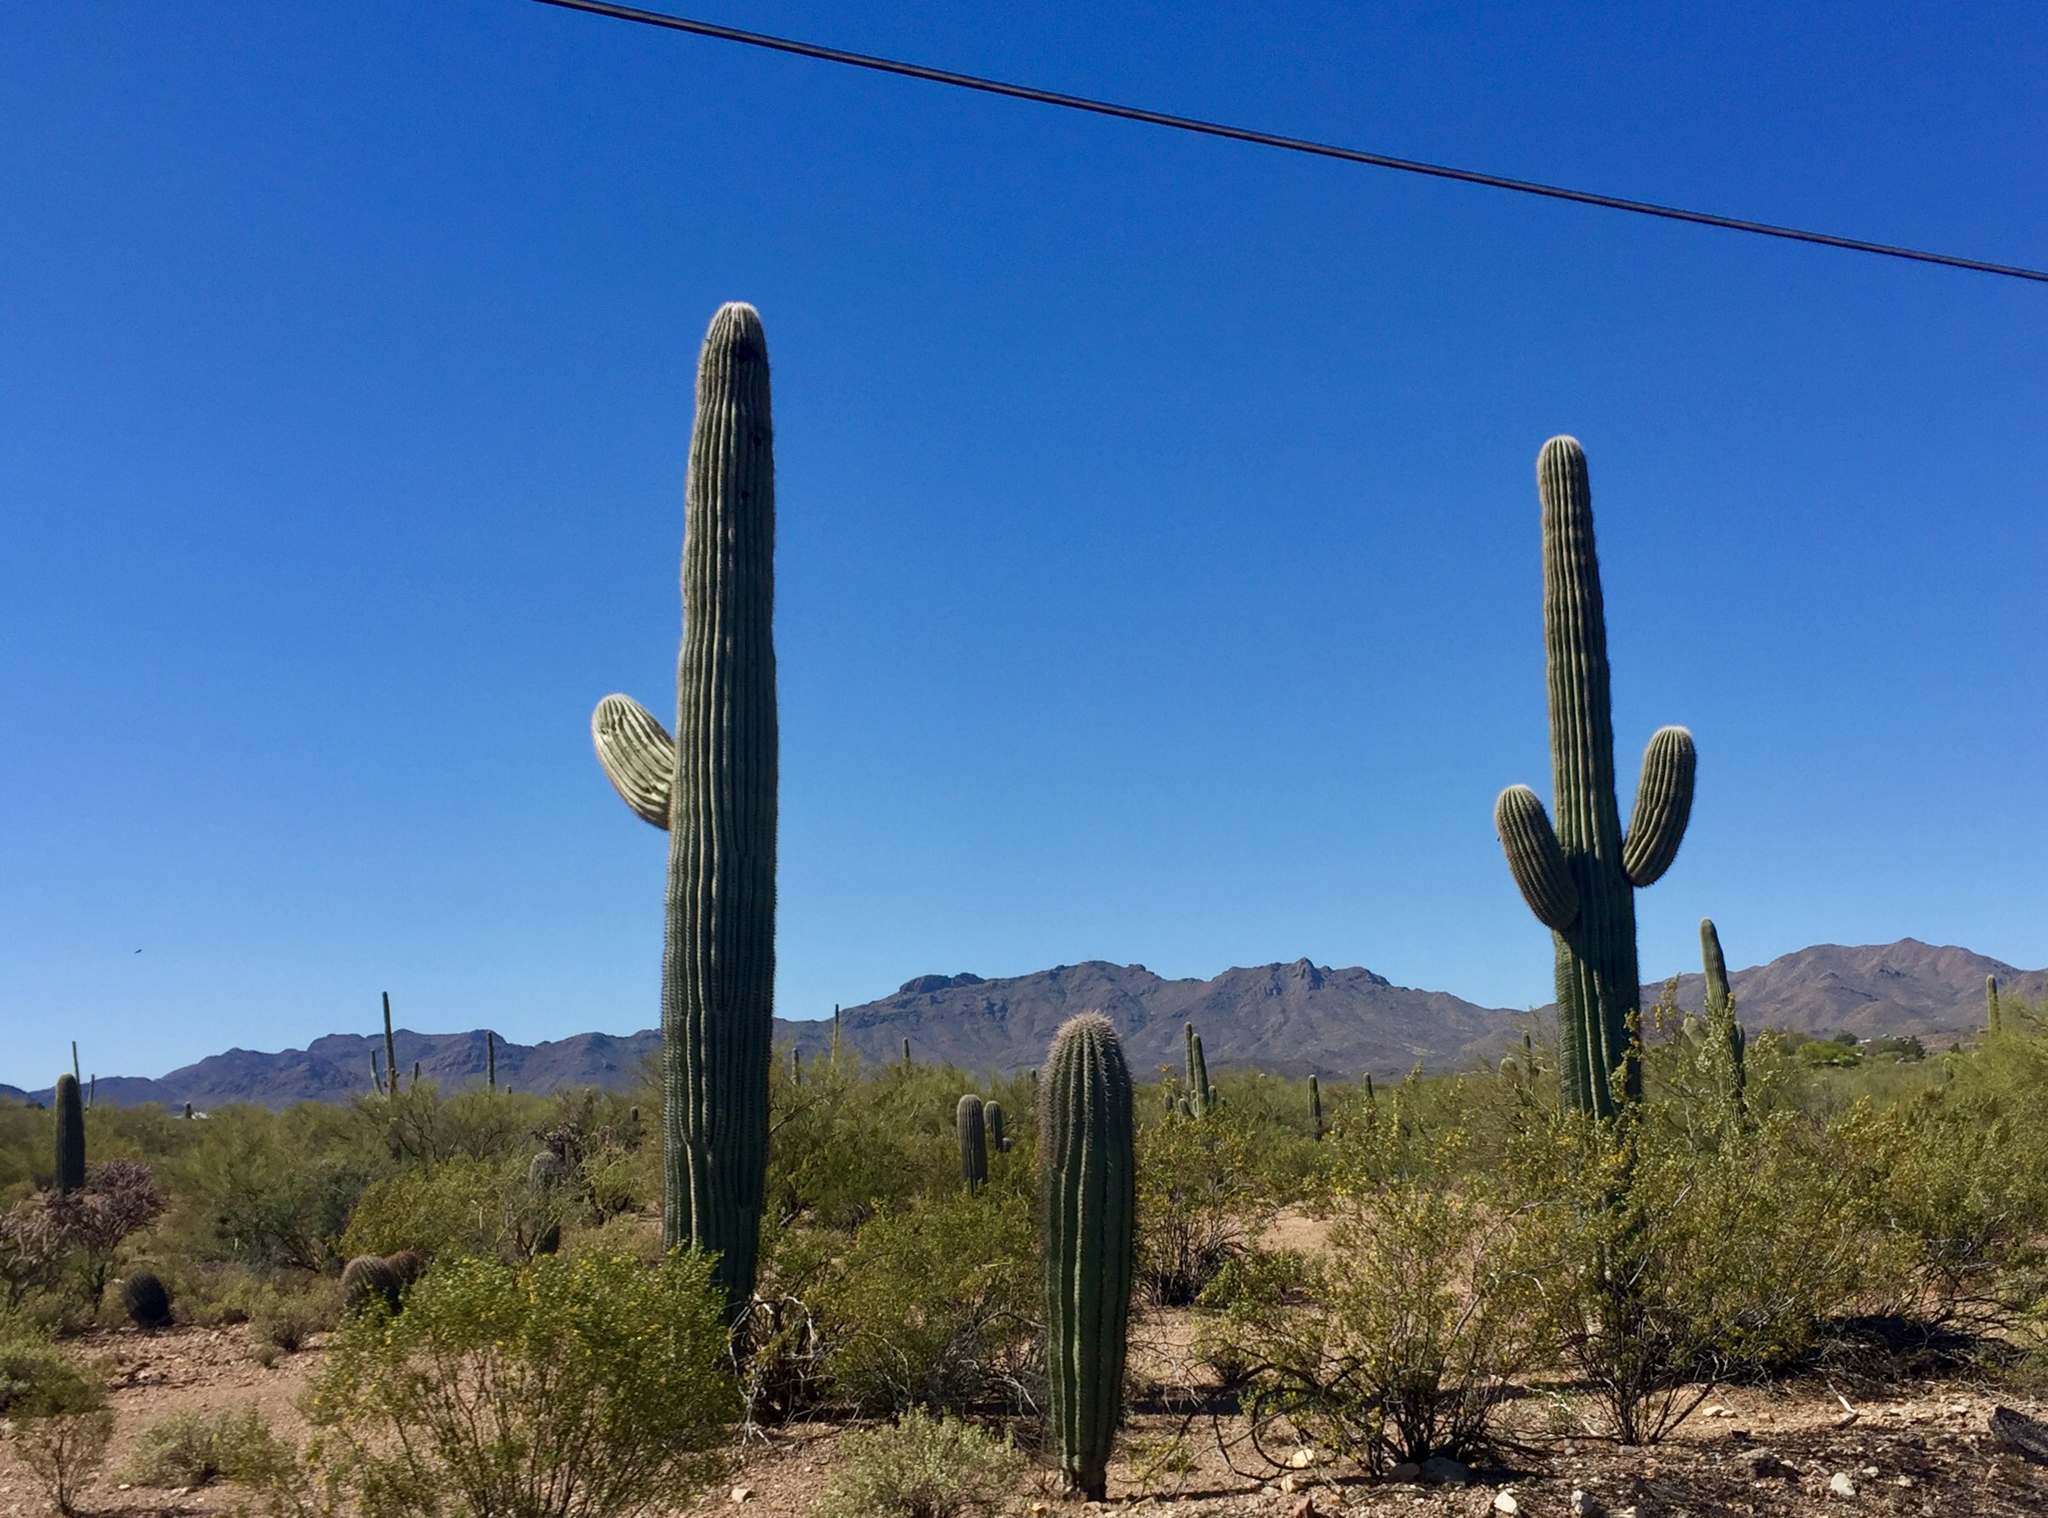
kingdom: Plantae
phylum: Tracheophyta
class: Magnoliopsida
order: Caryophyllales
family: Cactaceae
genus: Carnegiea
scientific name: Carnegiea gigantea
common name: Saguaro
